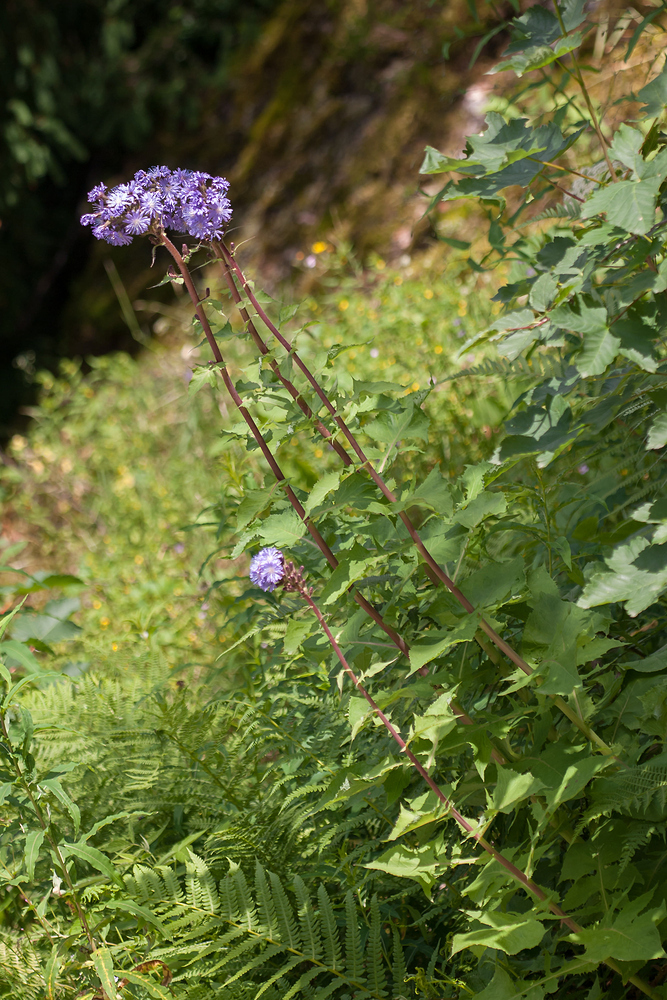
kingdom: Plantae
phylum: Tracheophyta
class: Magnoliopsida
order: Asterales
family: Asteraceae
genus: Cicerbita
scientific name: Cicerbita alpina
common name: Alpine blue-sow-thistle
